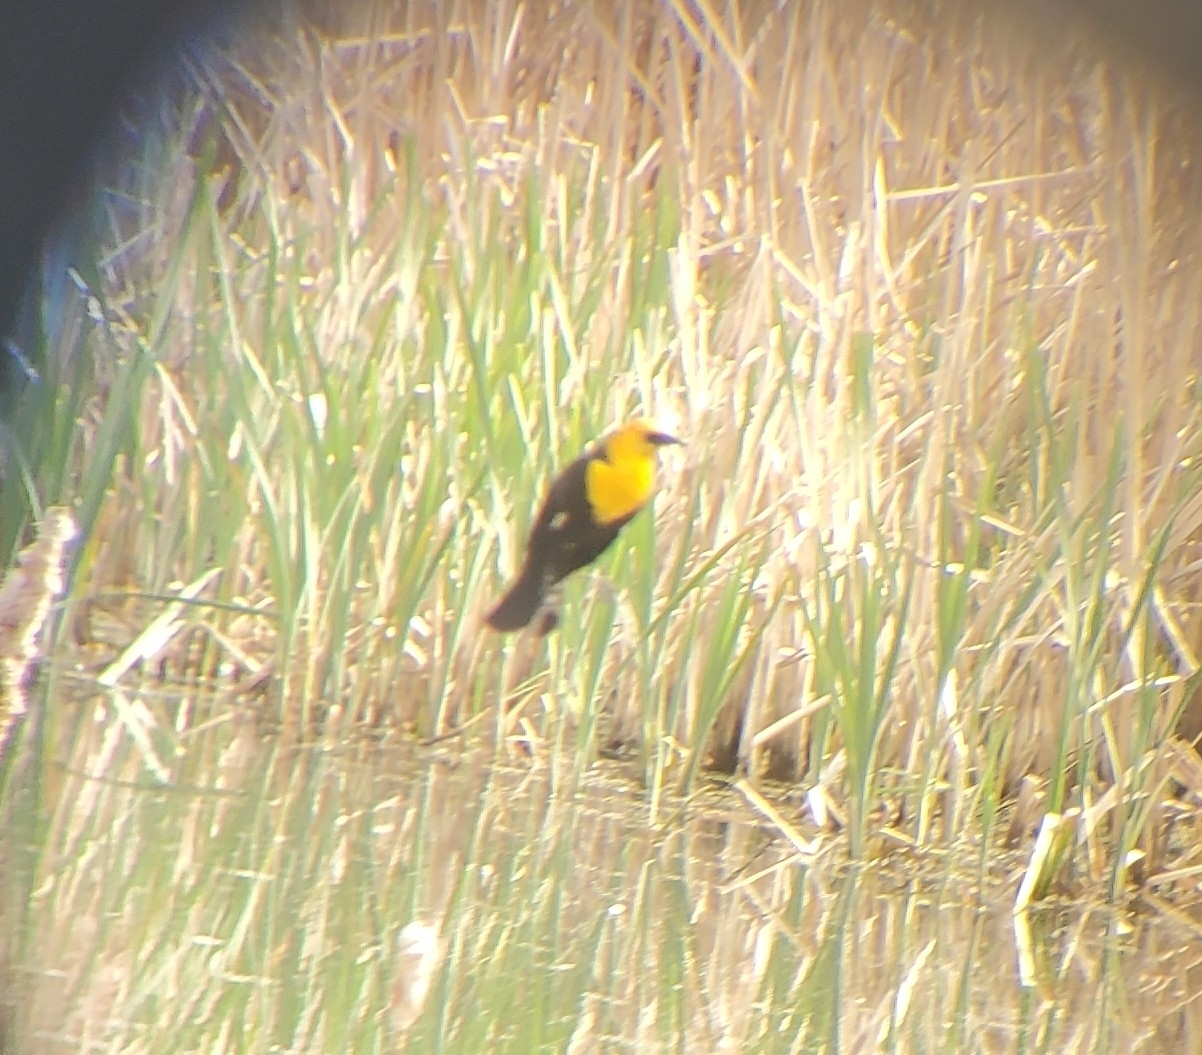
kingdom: Animalia
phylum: Chordata
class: Aves
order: Passeriformes
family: Icteridae
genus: Xanthocephalus
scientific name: Xanthocephalus xanthocephalus
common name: Yellow-headed blackbird
